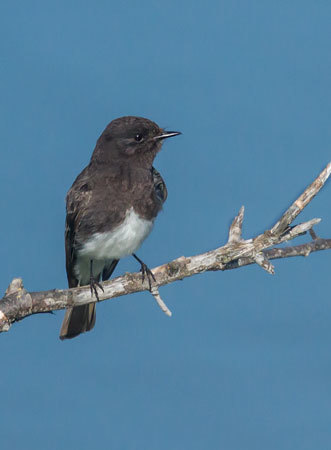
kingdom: Animalia
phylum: Chordata
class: Aves
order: Passeriformes
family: Tyrannidae
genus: Sayornis
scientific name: Sayornis nigricans
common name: Black phoebe
